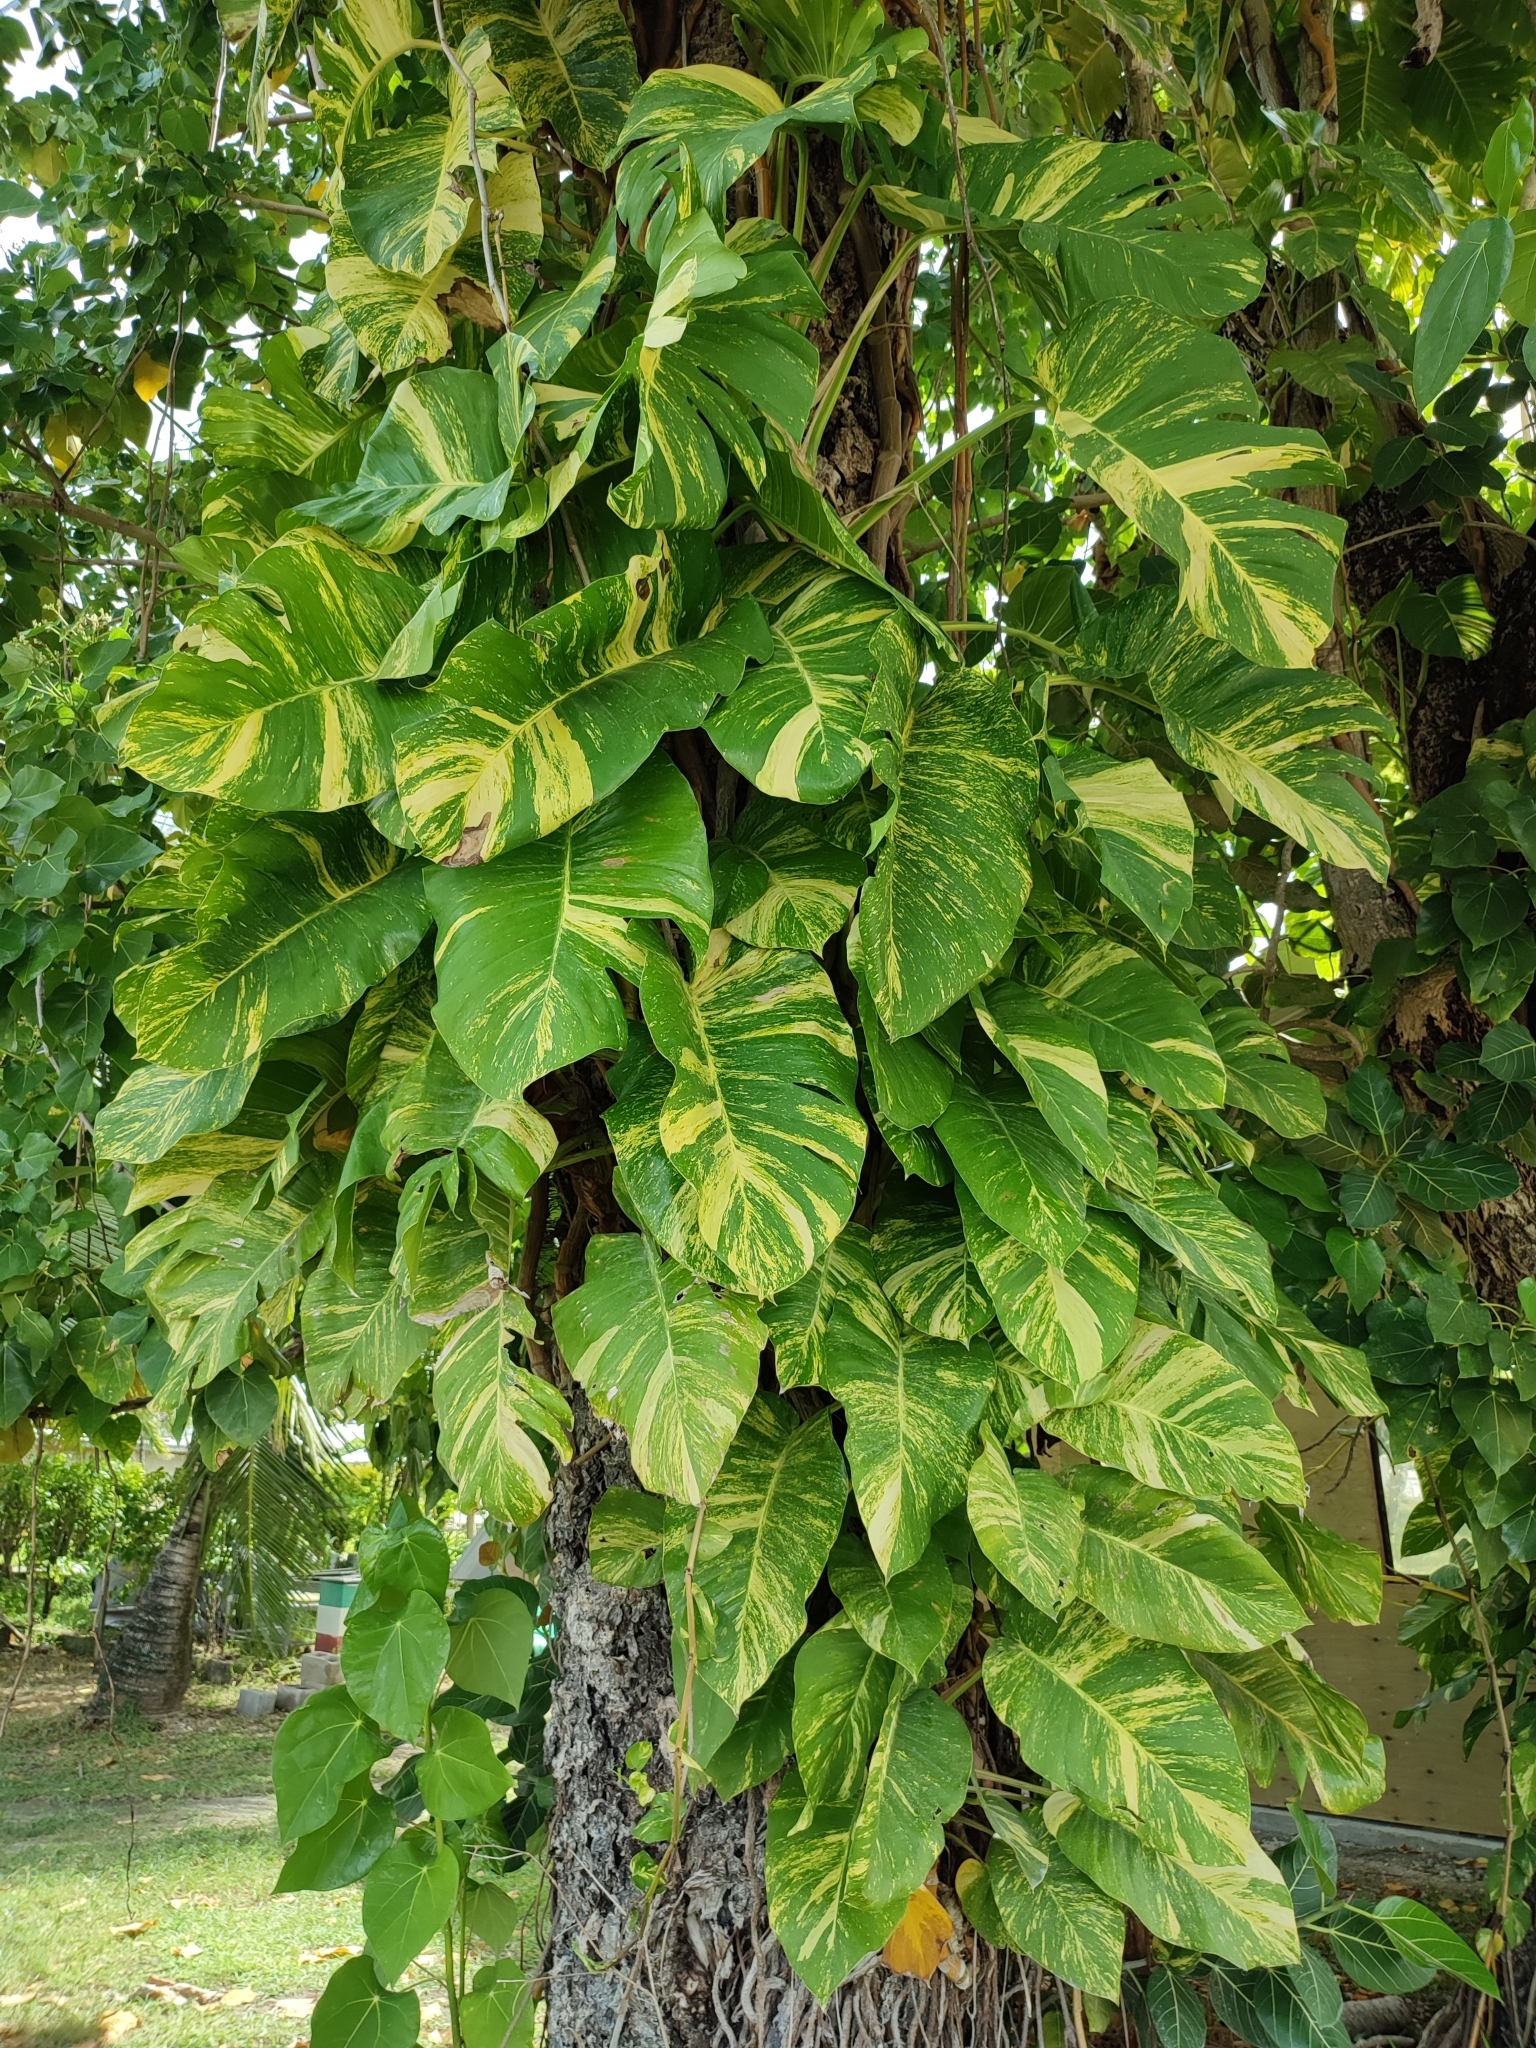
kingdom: Plantae
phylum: Tracheophyta
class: Liliopsida
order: Alismatales
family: Araceae
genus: Epipremnum
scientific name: Epipremnum aureum
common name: Golden hunter's-robe
